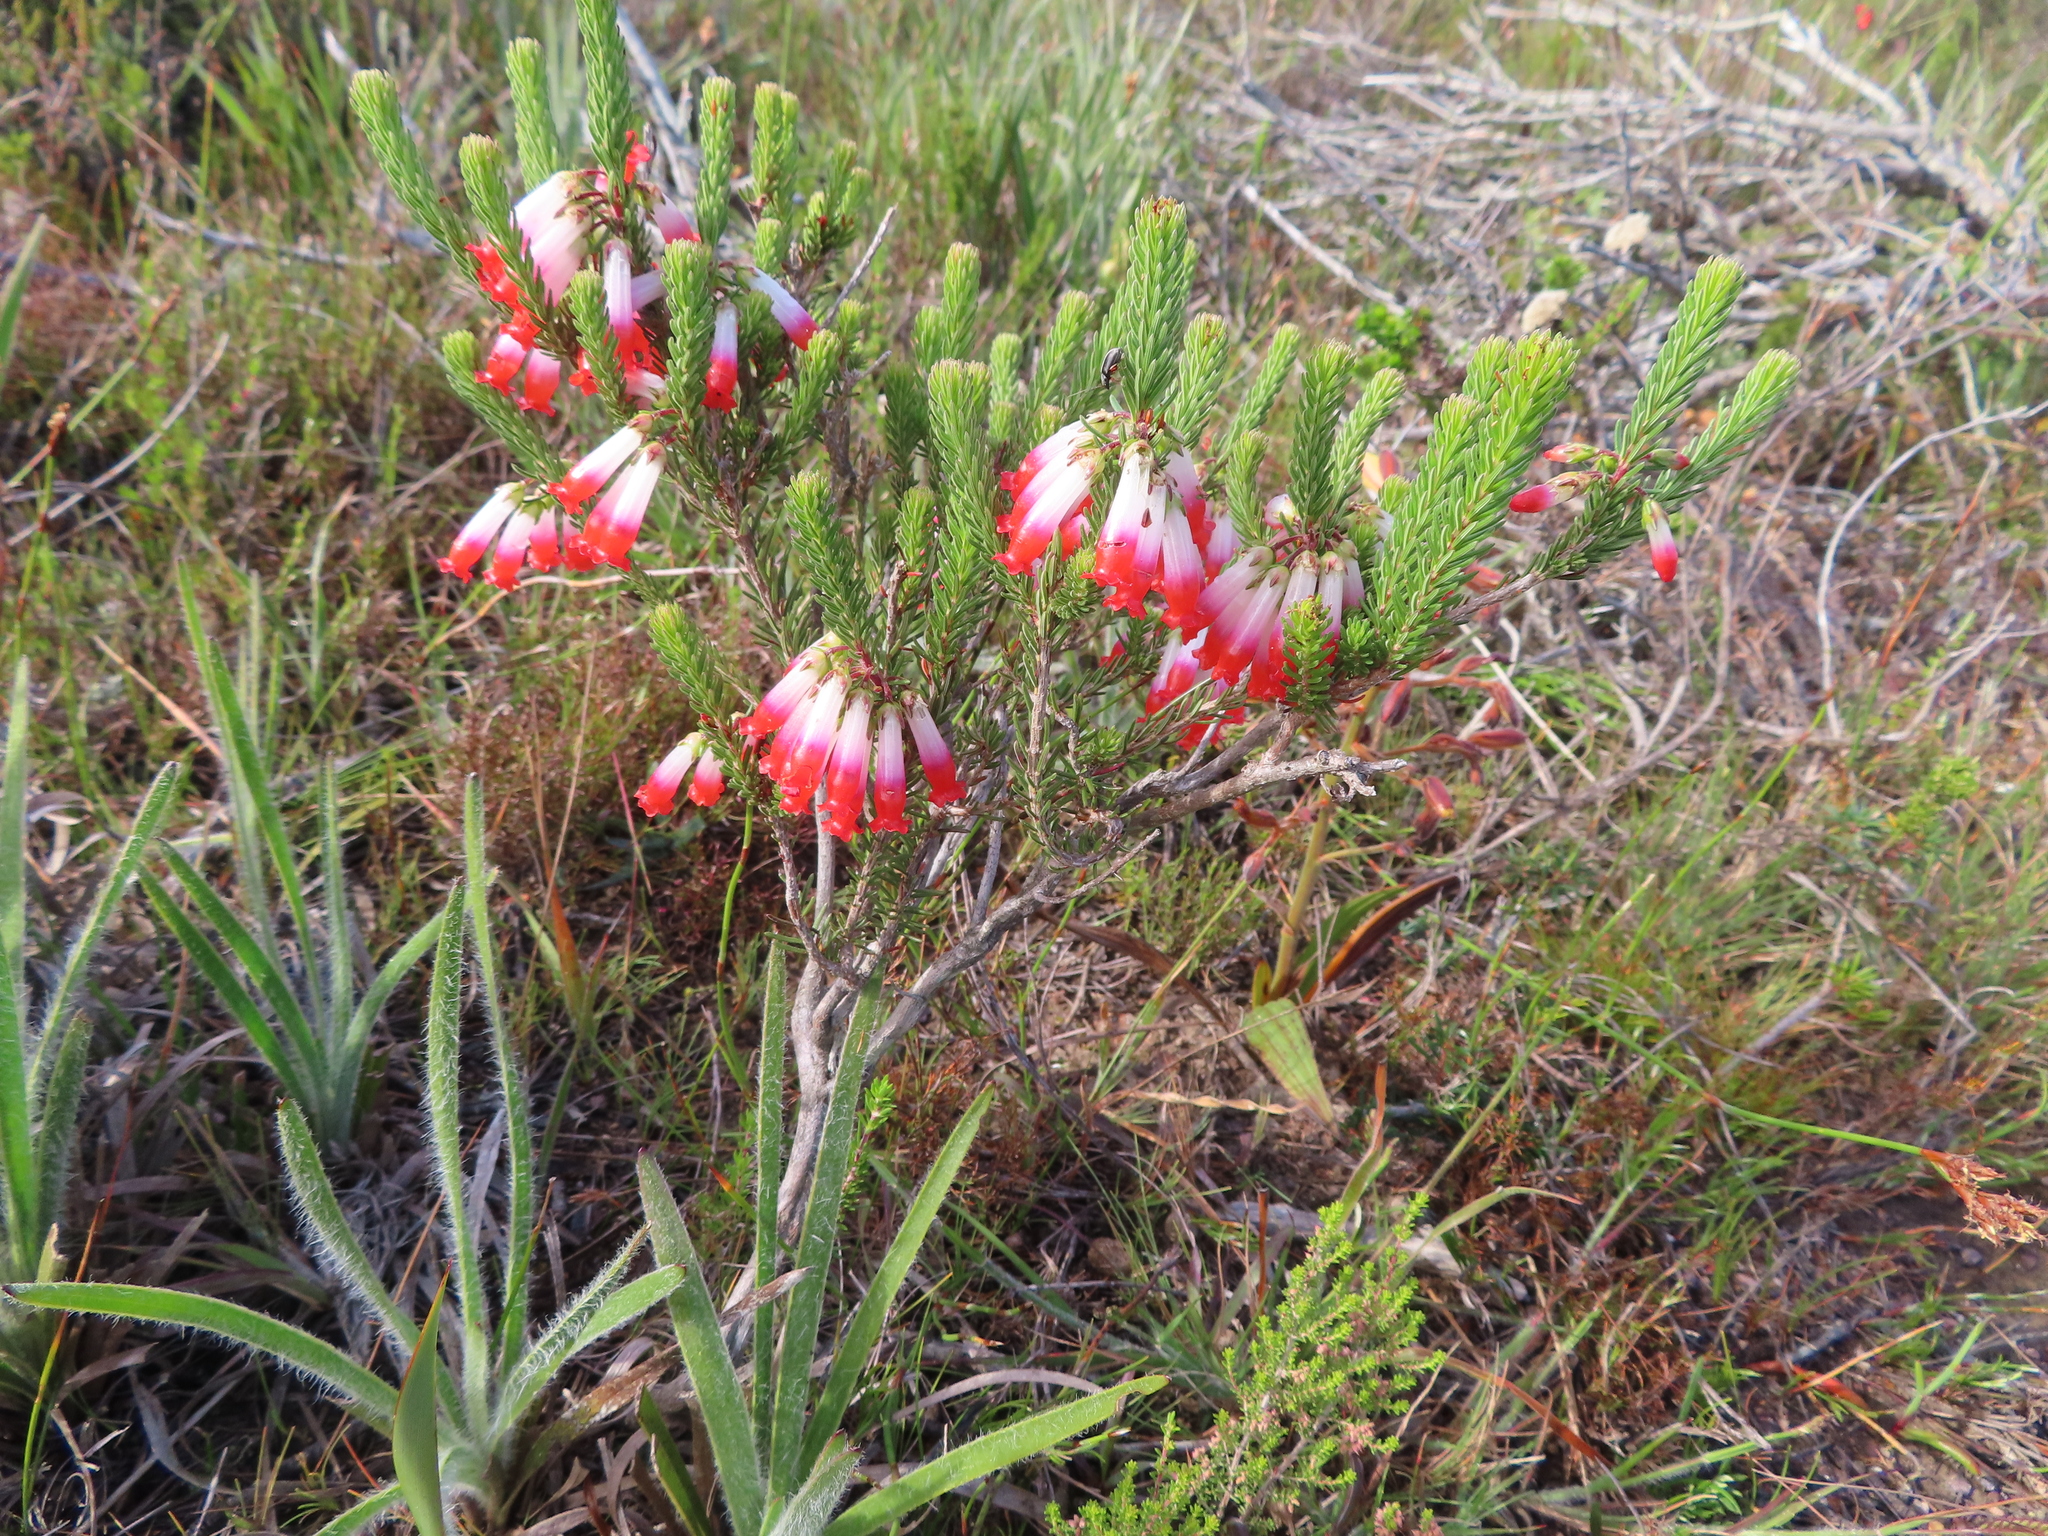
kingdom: Plantae
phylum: Tracheophyta
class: Magnoliopsida
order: Ericales
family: Ericaceae
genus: Erica
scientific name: Erica regia
